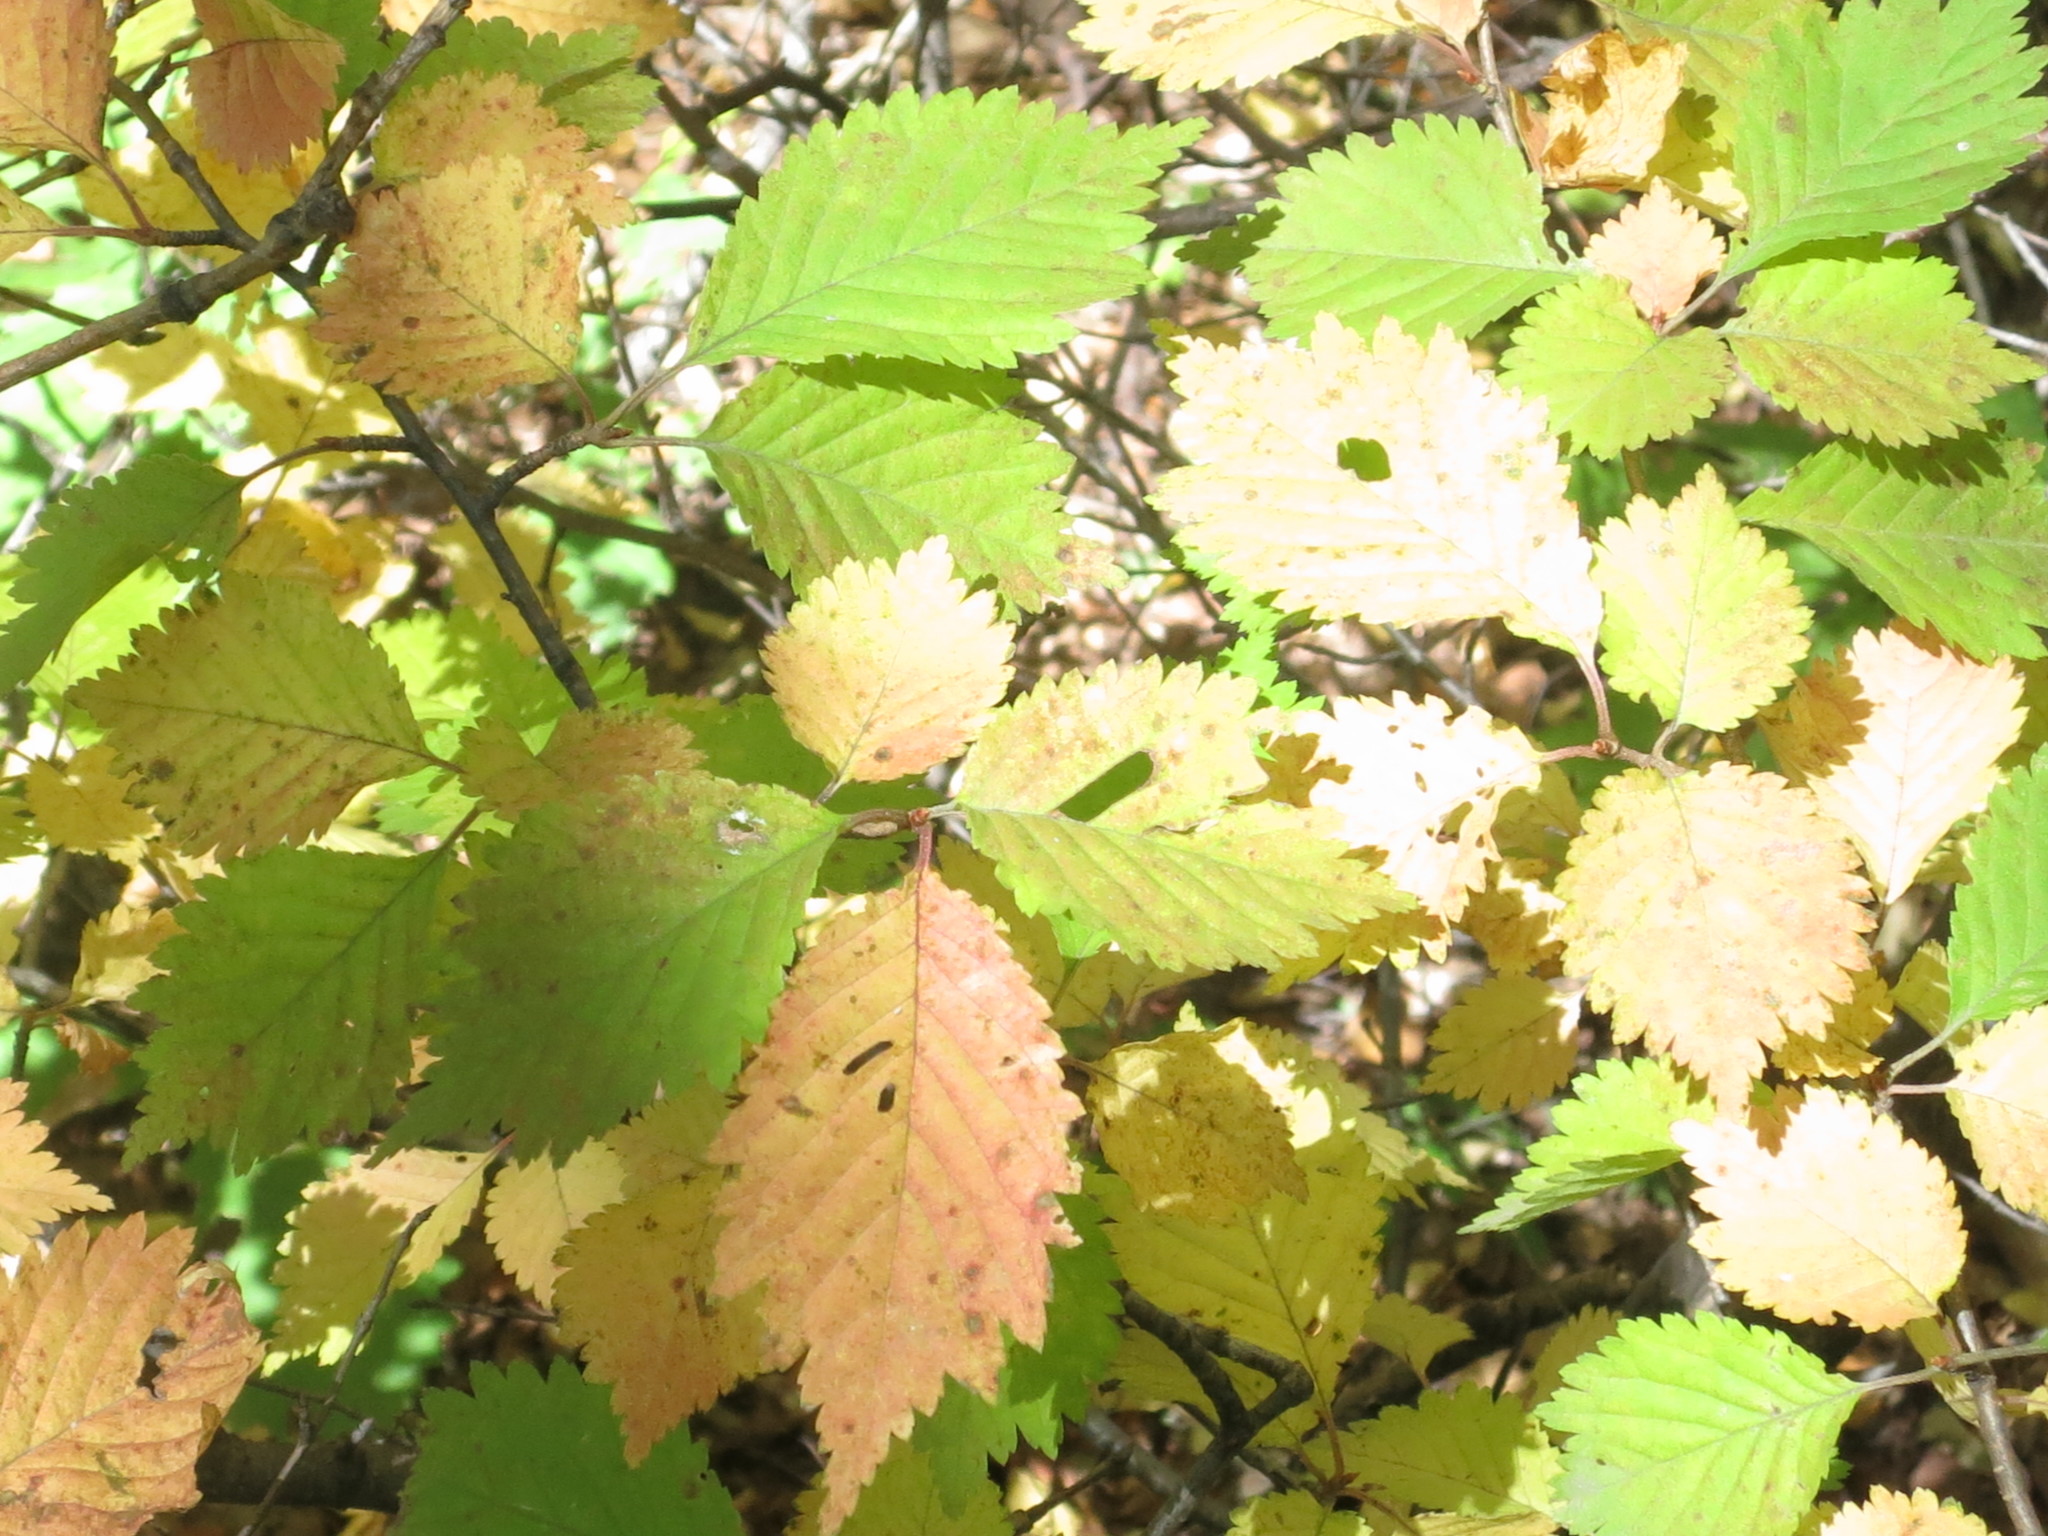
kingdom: Plantae
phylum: Tracheophyta
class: Magnoliopsida
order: Rosales
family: Rosaceae
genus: Prunus
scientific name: Prunus maximowiczii
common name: Korean cherry
